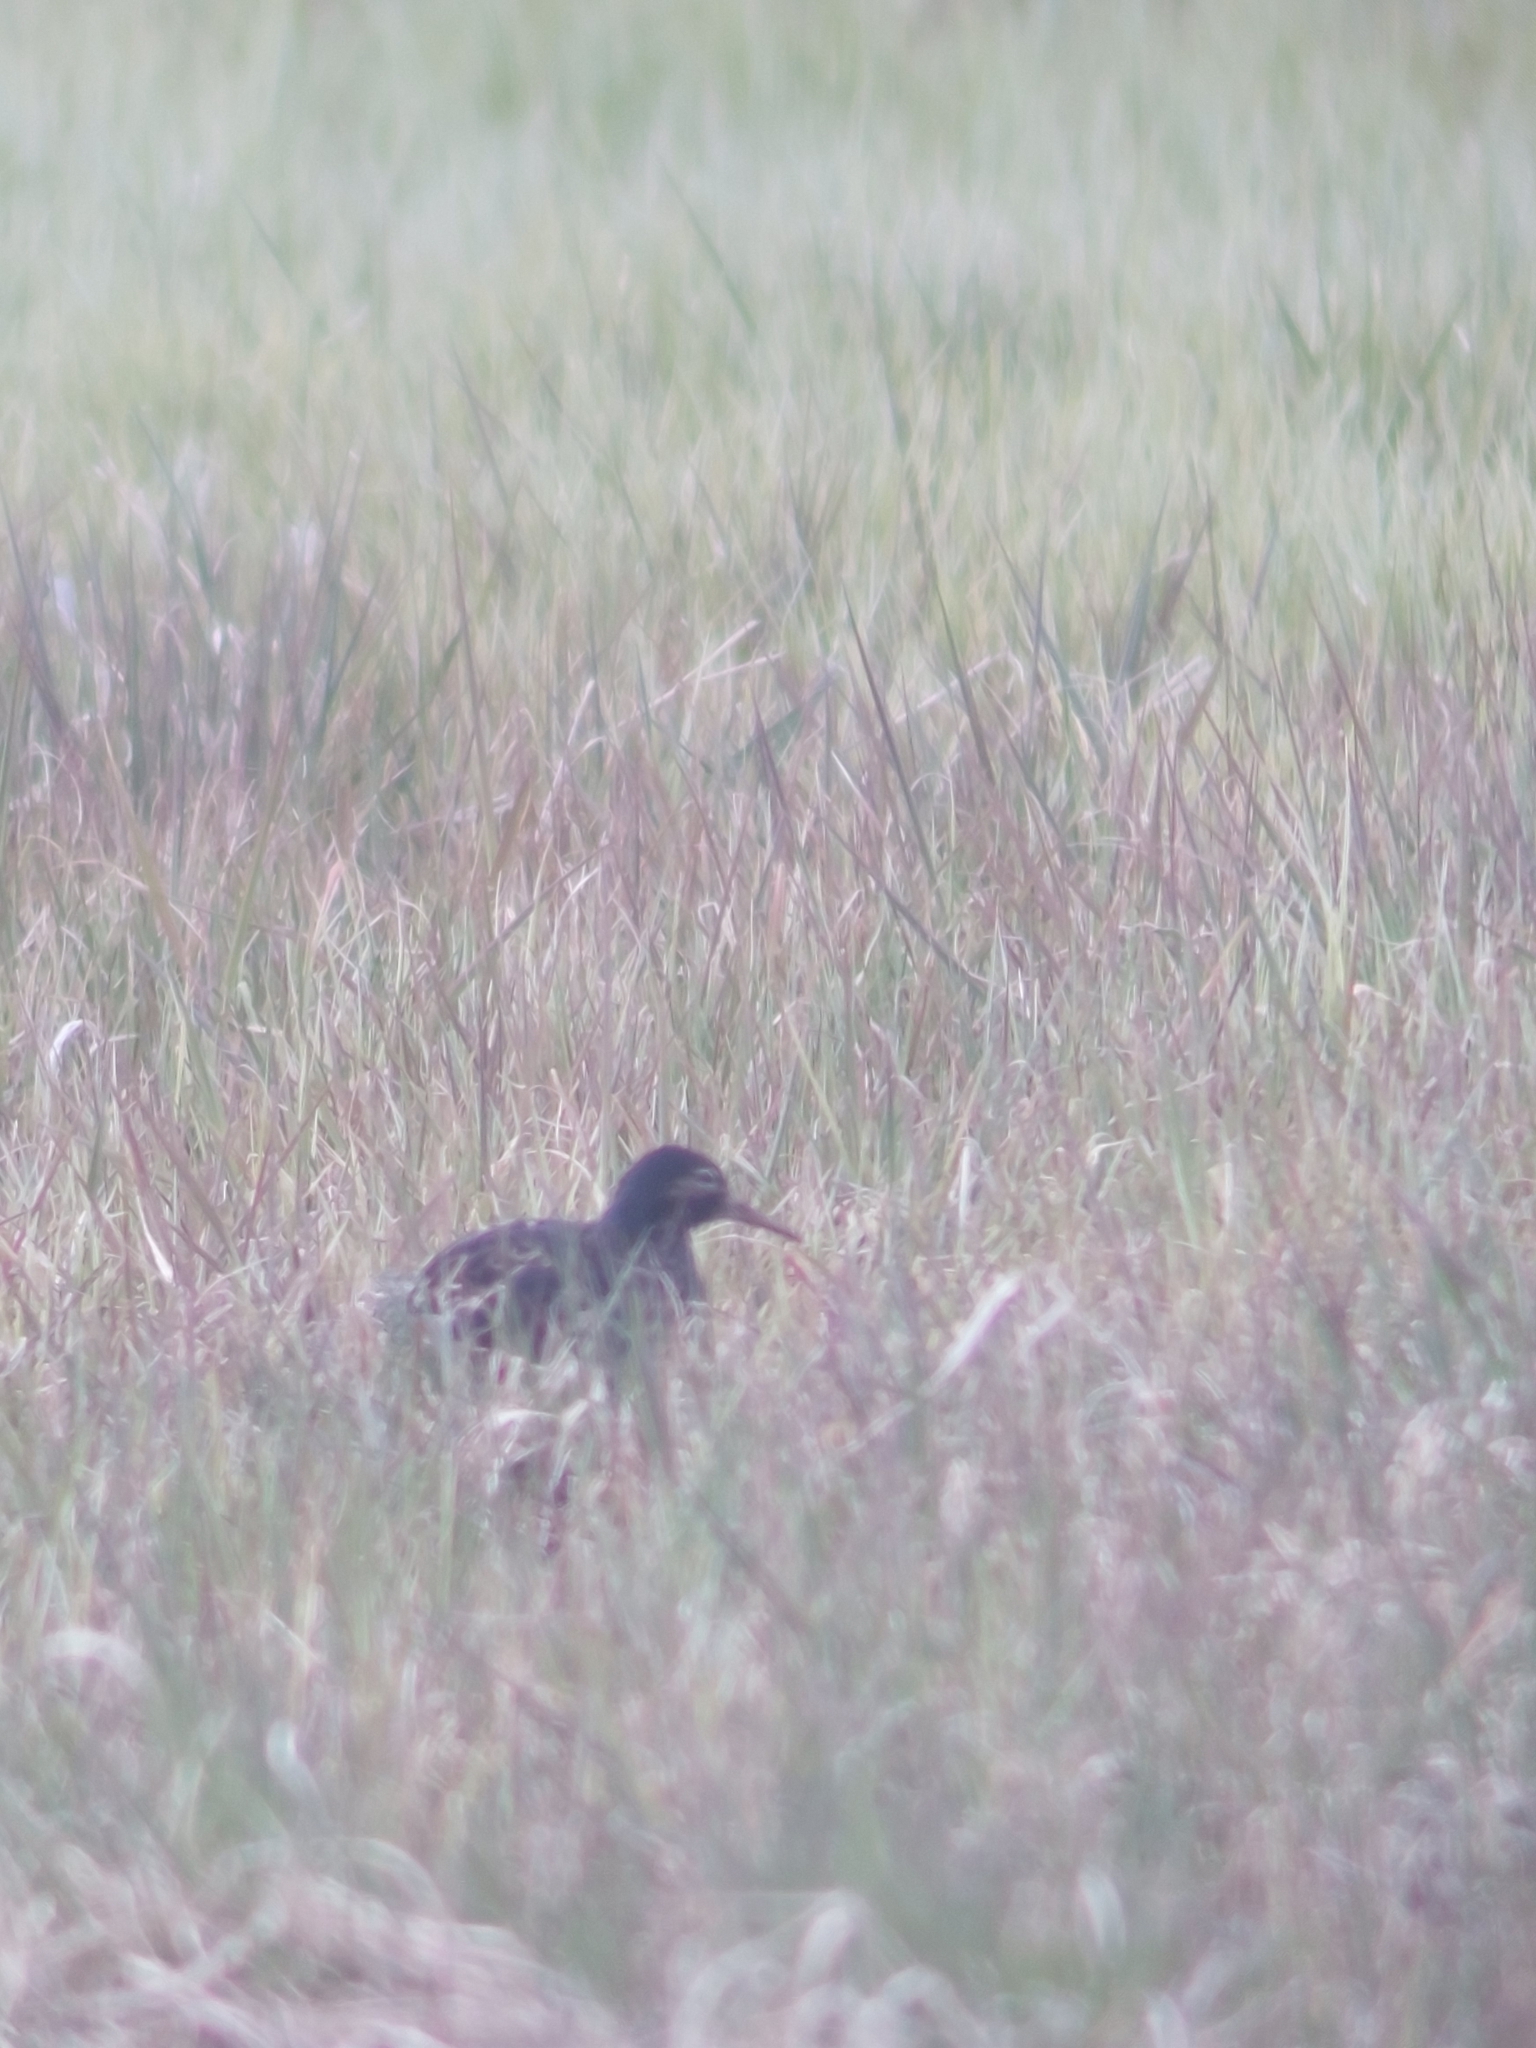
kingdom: Animalia
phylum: Chordata
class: Aves
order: Charadriiformes
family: Scolopacidae
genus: Calidris
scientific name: Calidris pugnax
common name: Ruff
